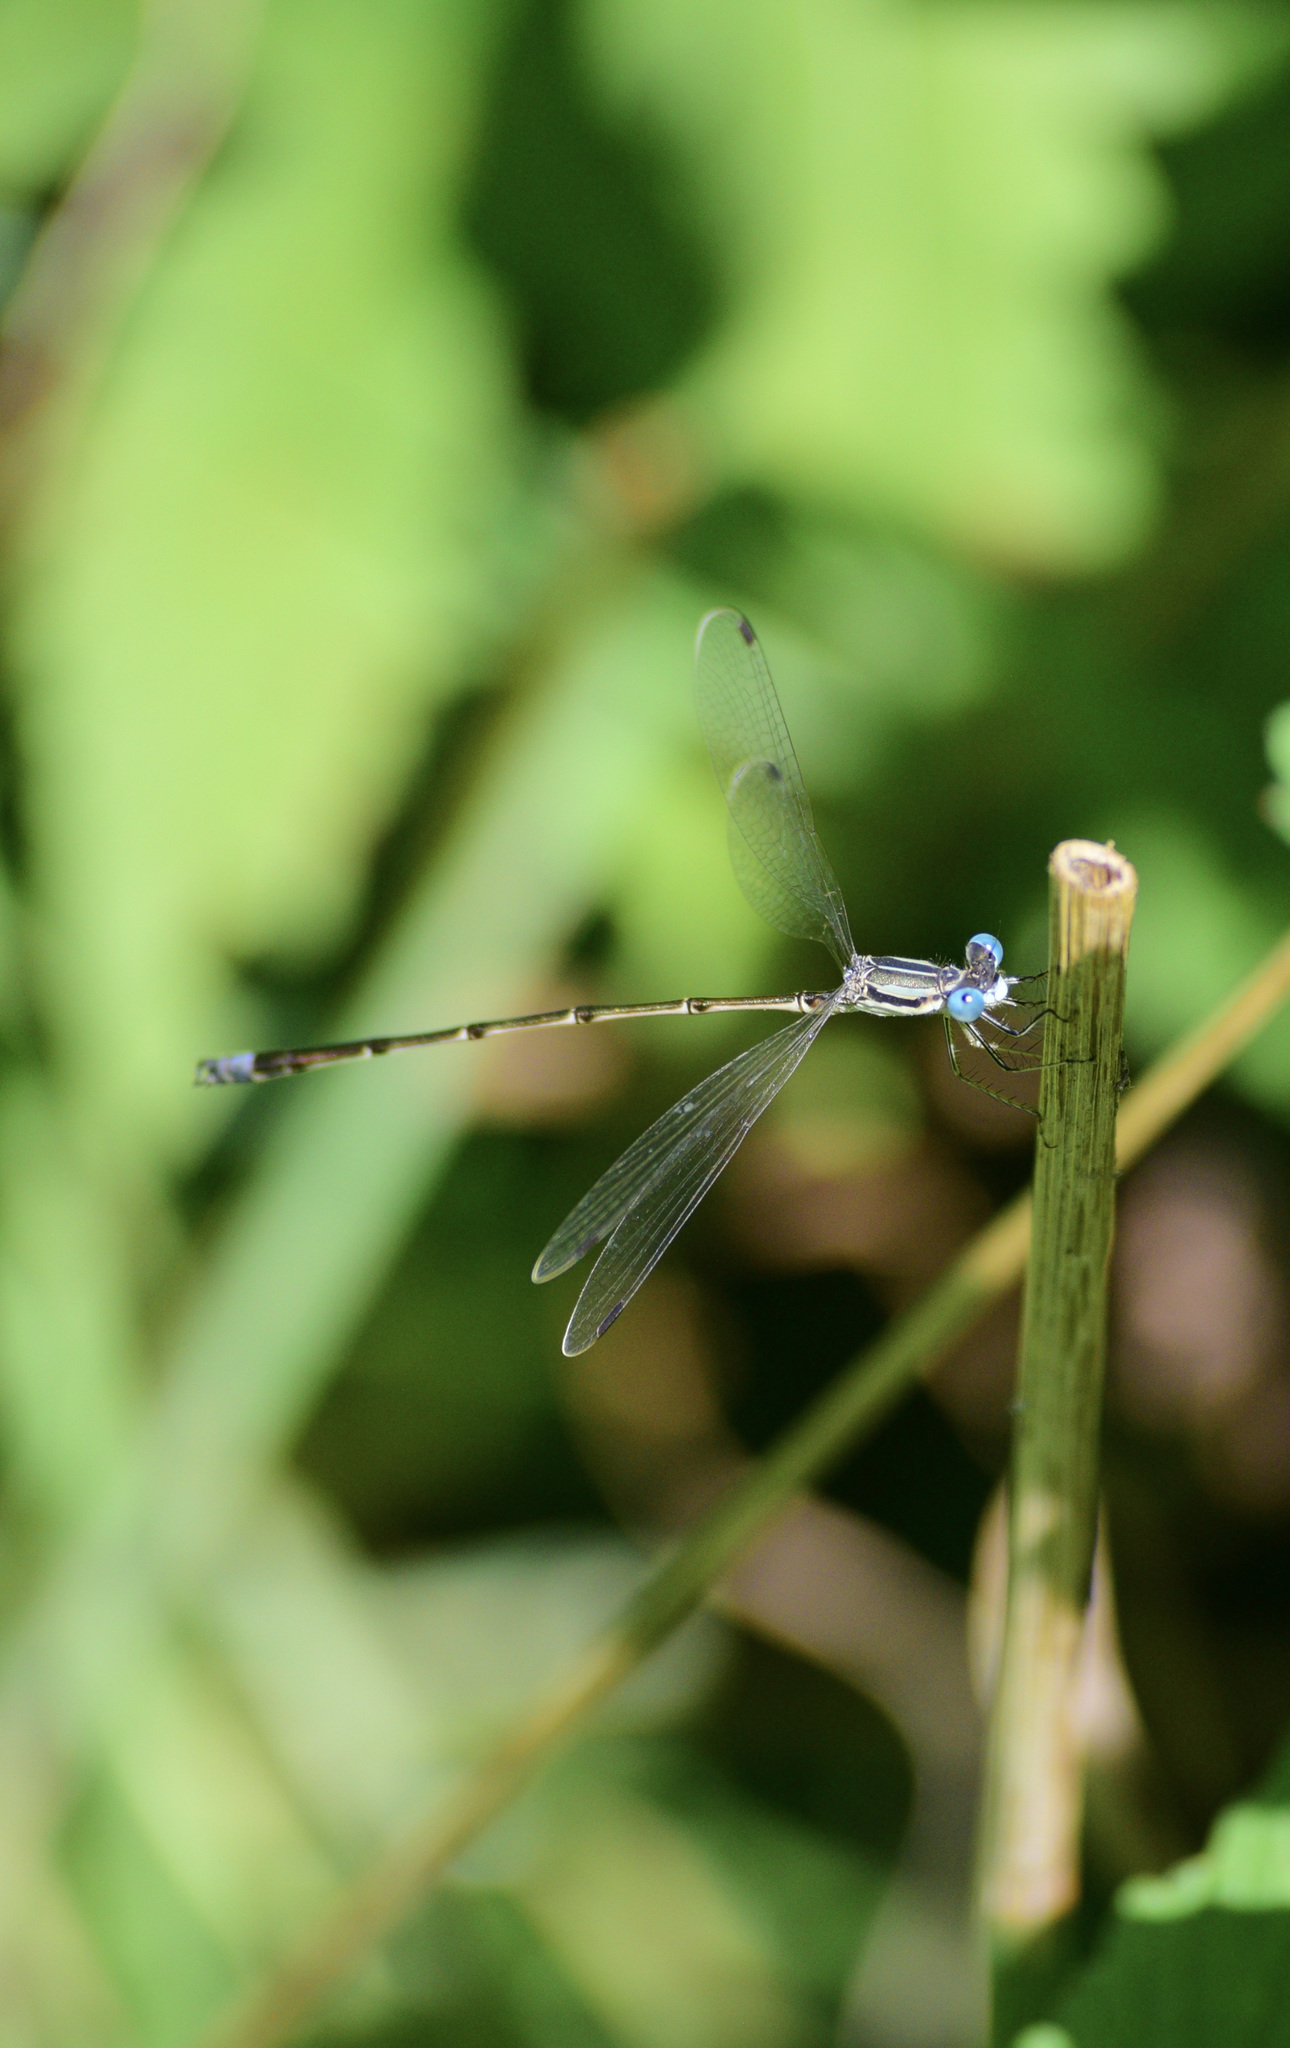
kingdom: Animalia
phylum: Arthropoda
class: Insecta
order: Odonata
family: Lestidae
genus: Lestes
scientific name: Lestes rectangularis
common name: Slender spreadwing
